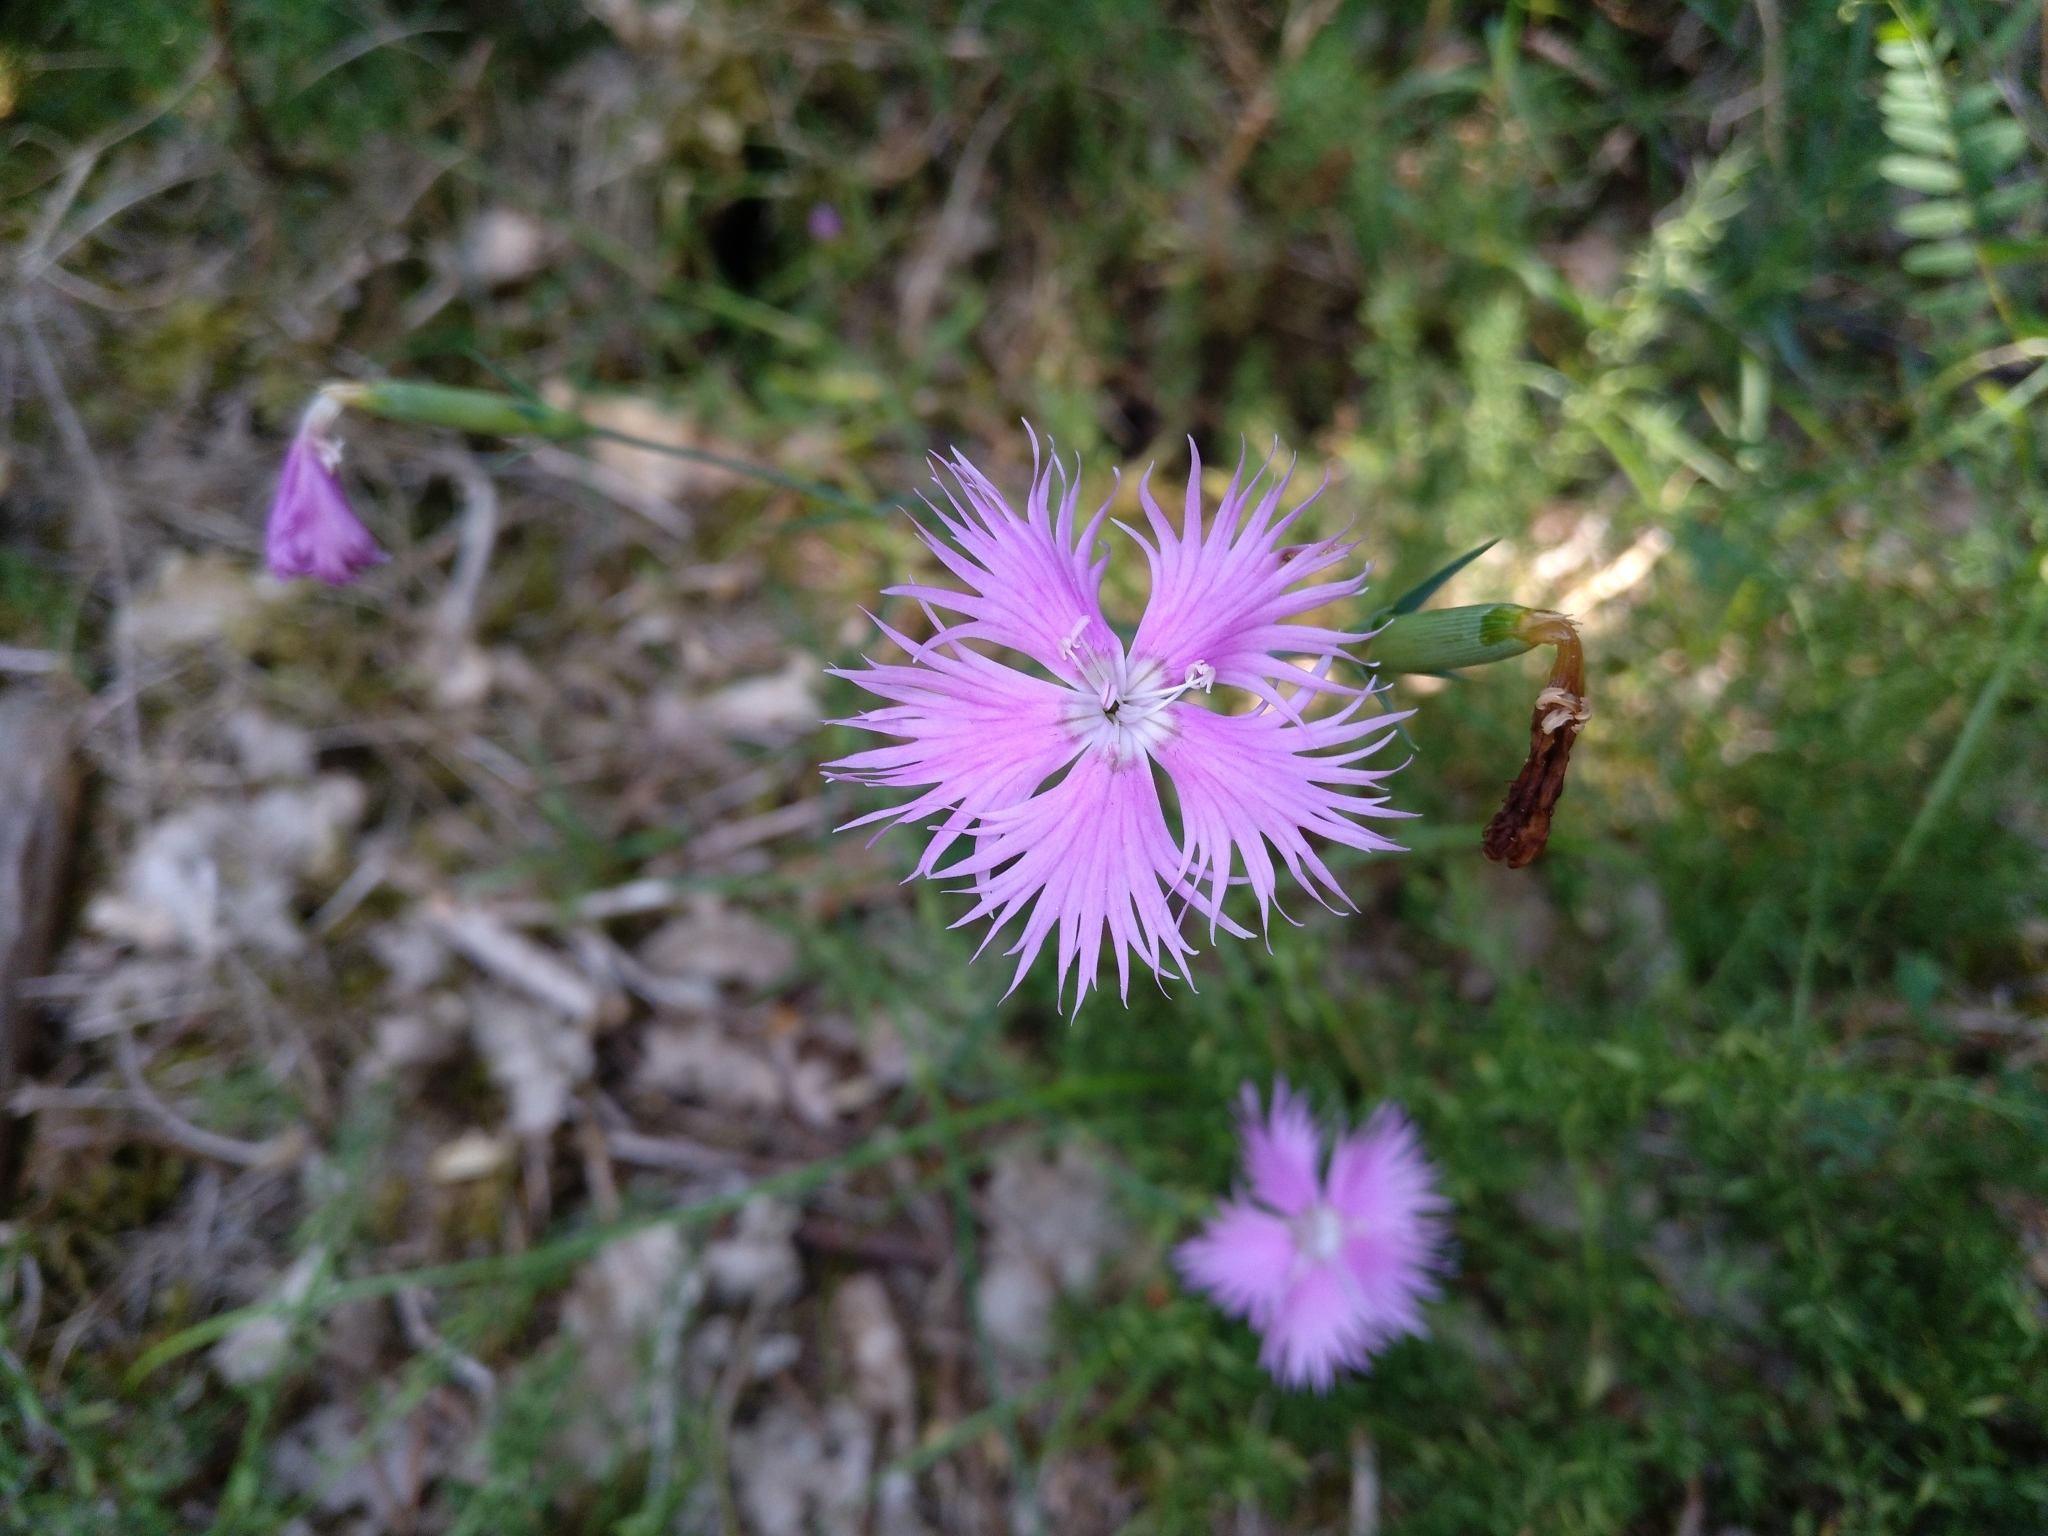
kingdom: Plantae
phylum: Tracheophyta
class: Magnoliopsida
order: Caryophyllales
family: Caryophyllaceae
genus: Dianthus
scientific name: Dianthus hyssopifolius
